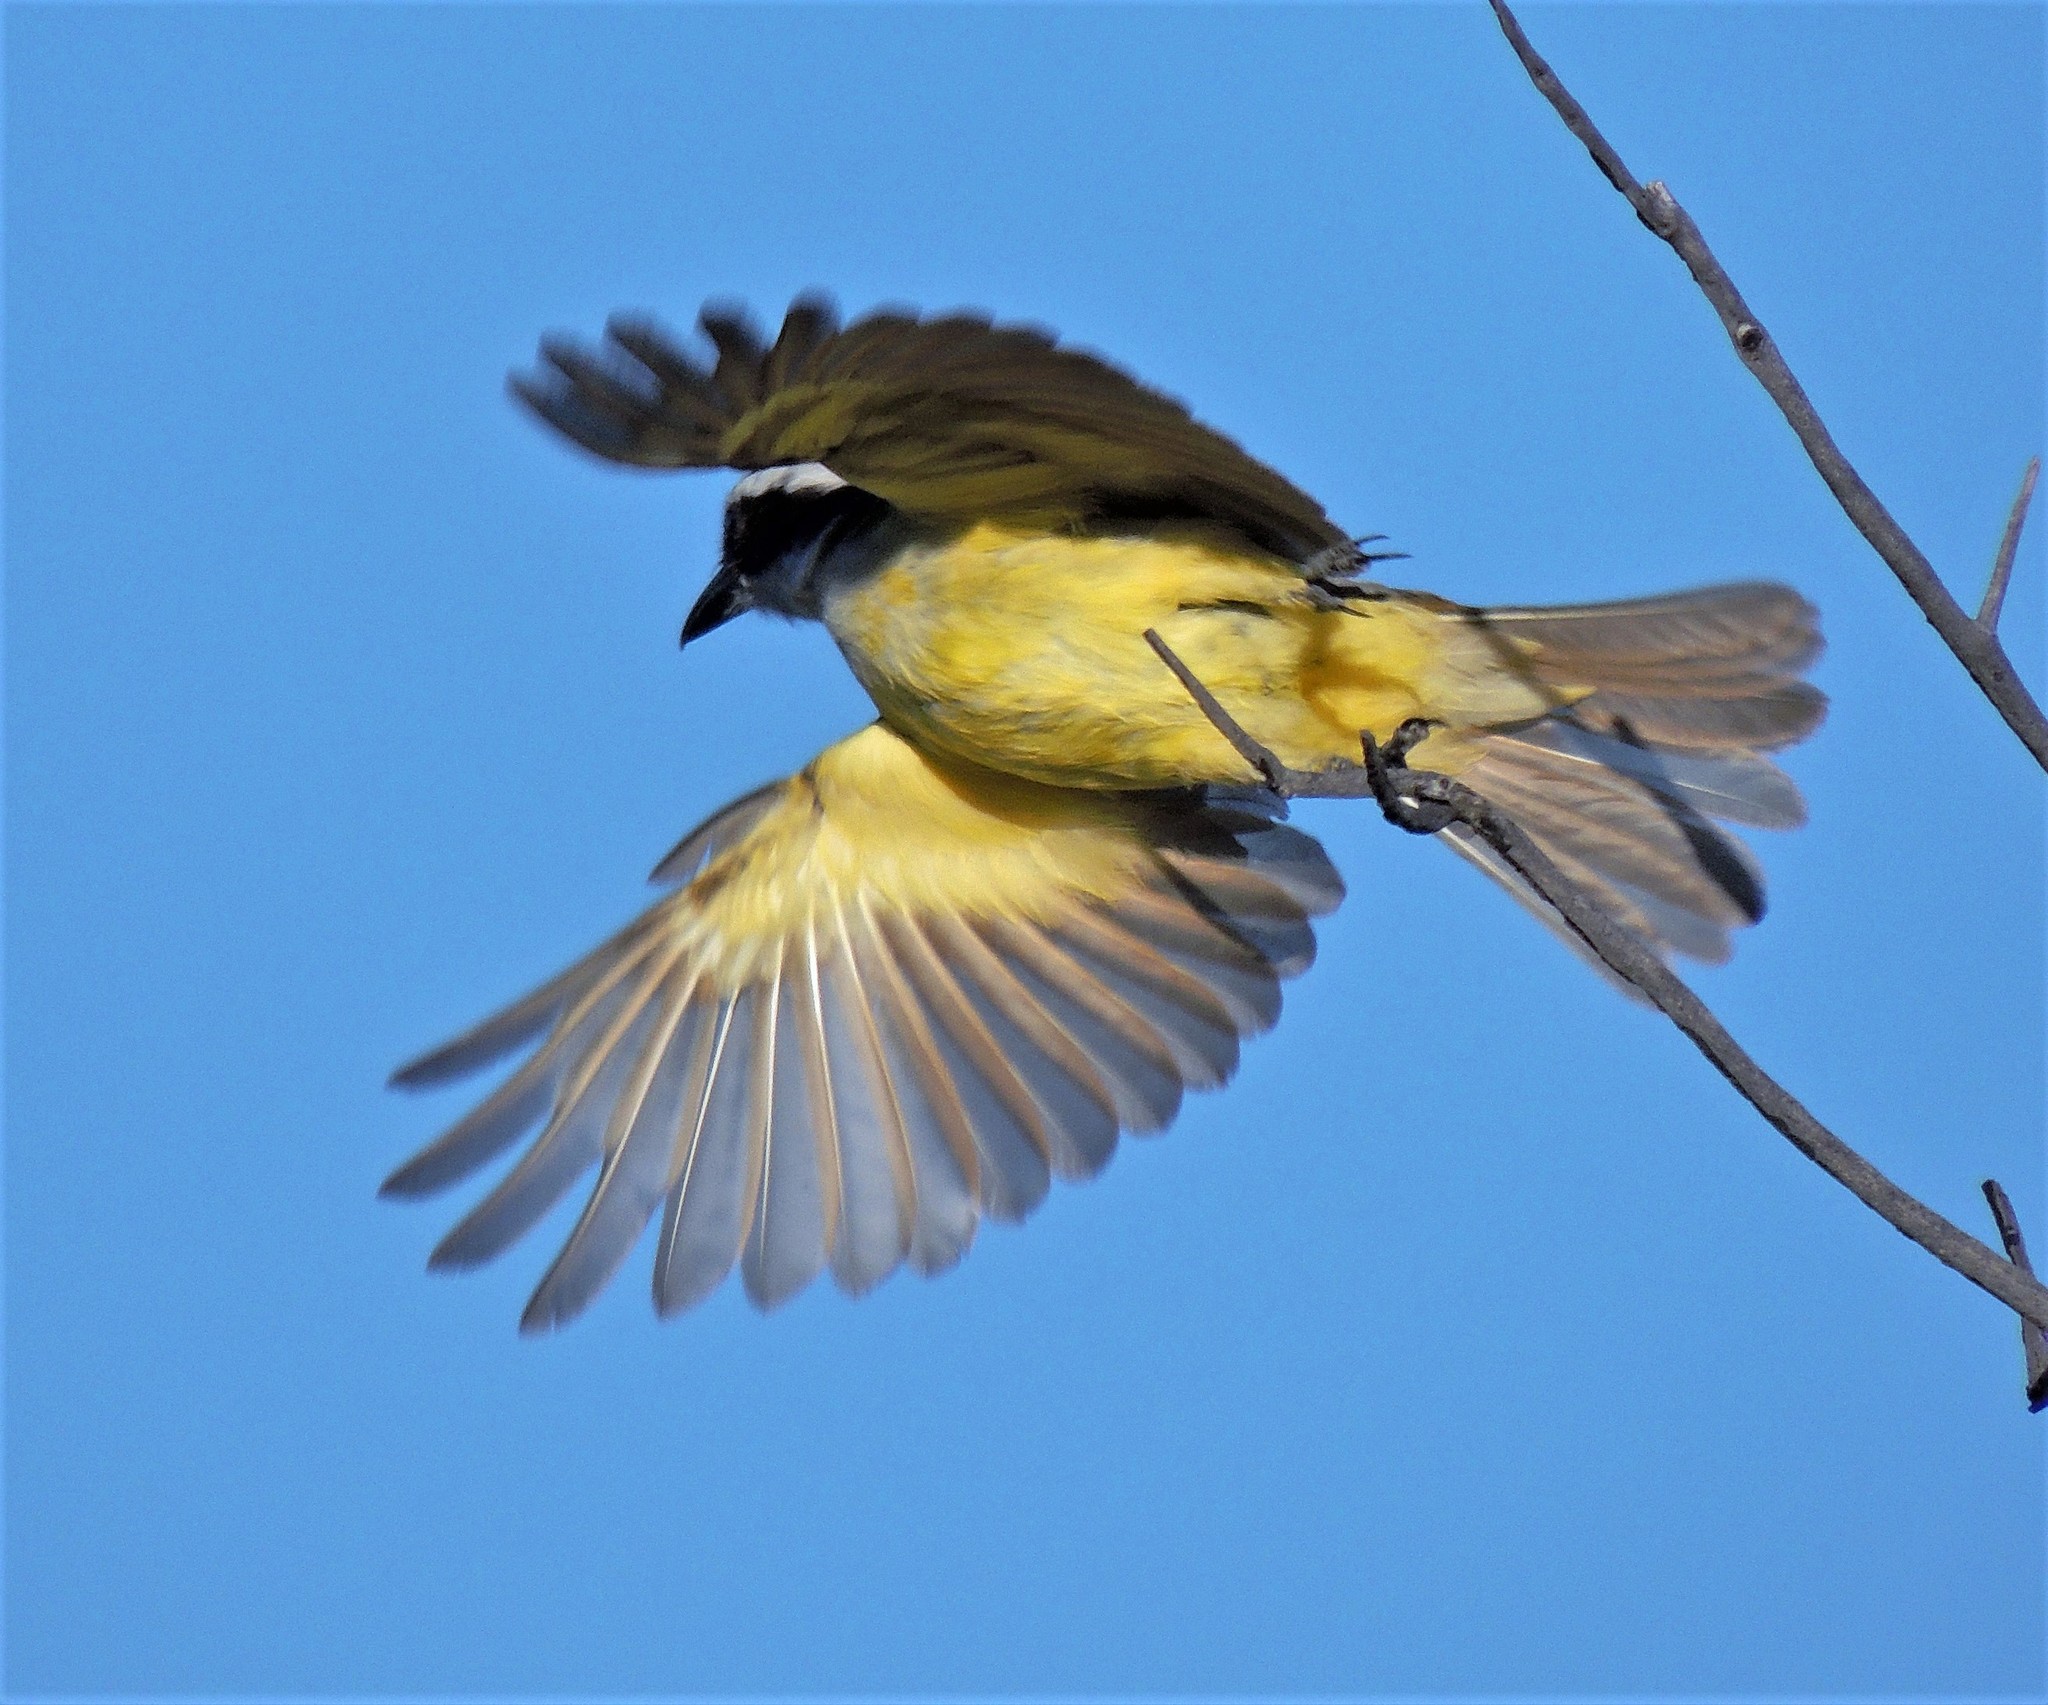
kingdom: Animalia
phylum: Chordata
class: Aves
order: Passeriformes
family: Tyrannidae
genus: Pitangus
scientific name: Pitangus sulphuratus
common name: Great kiskadee
